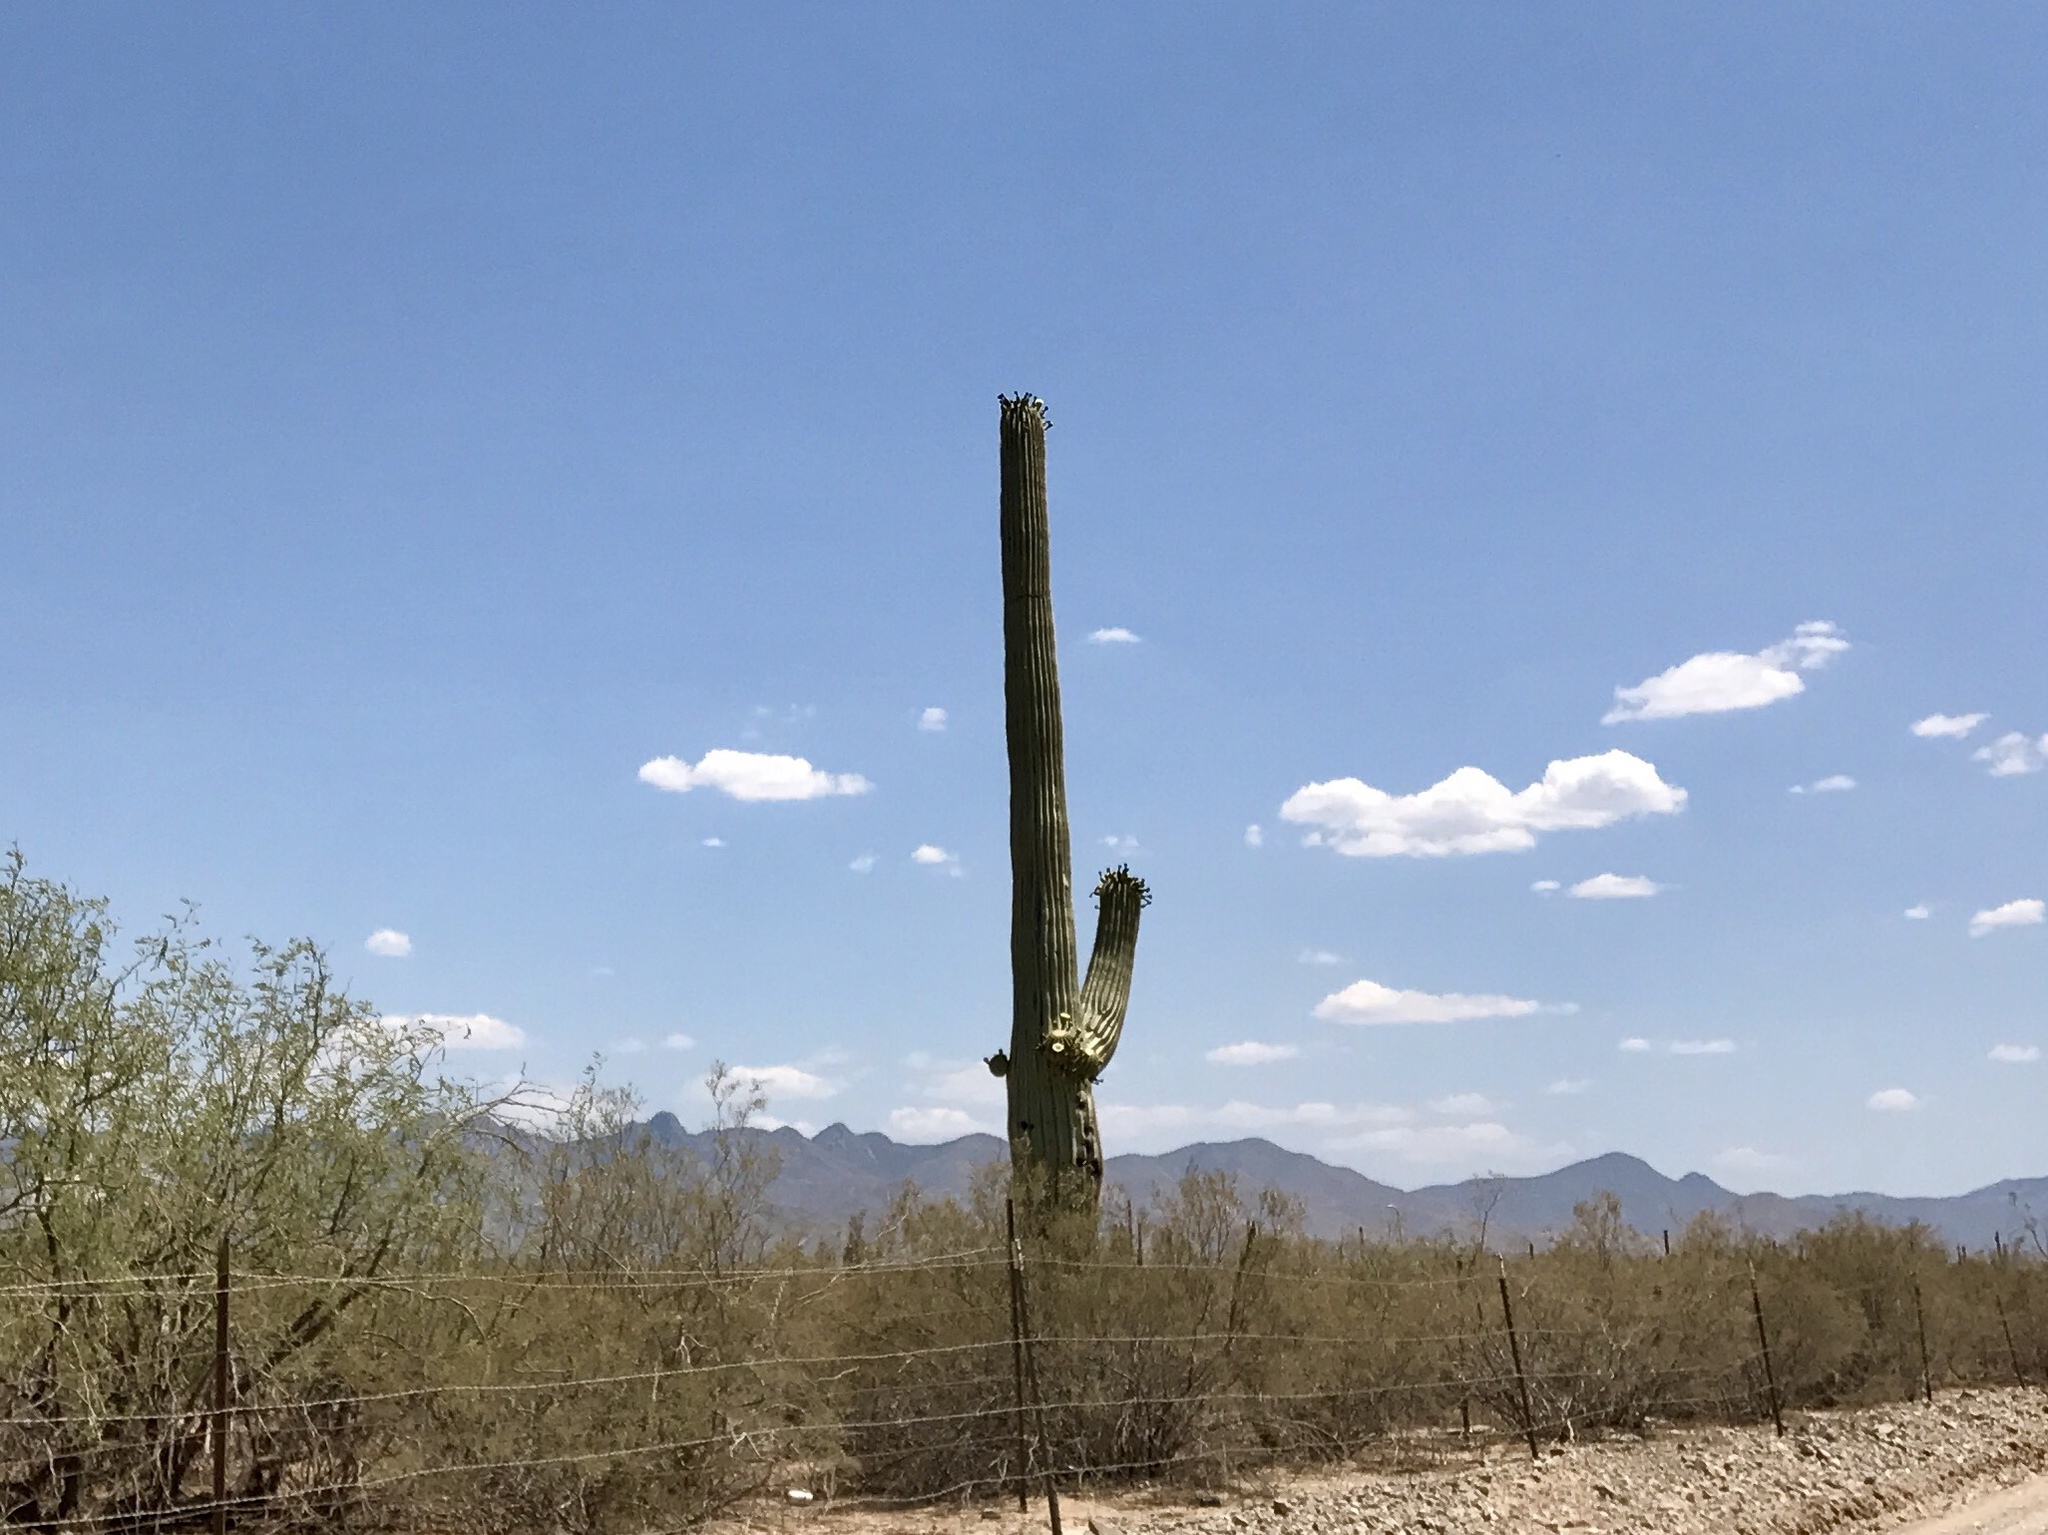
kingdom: Plantae
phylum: Tracheophyta
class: Magnoliopsida
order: Caryophyllales
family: Cactaceae
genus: Carnegiea
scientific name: Carnegiea gigantea
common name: Saguaro
